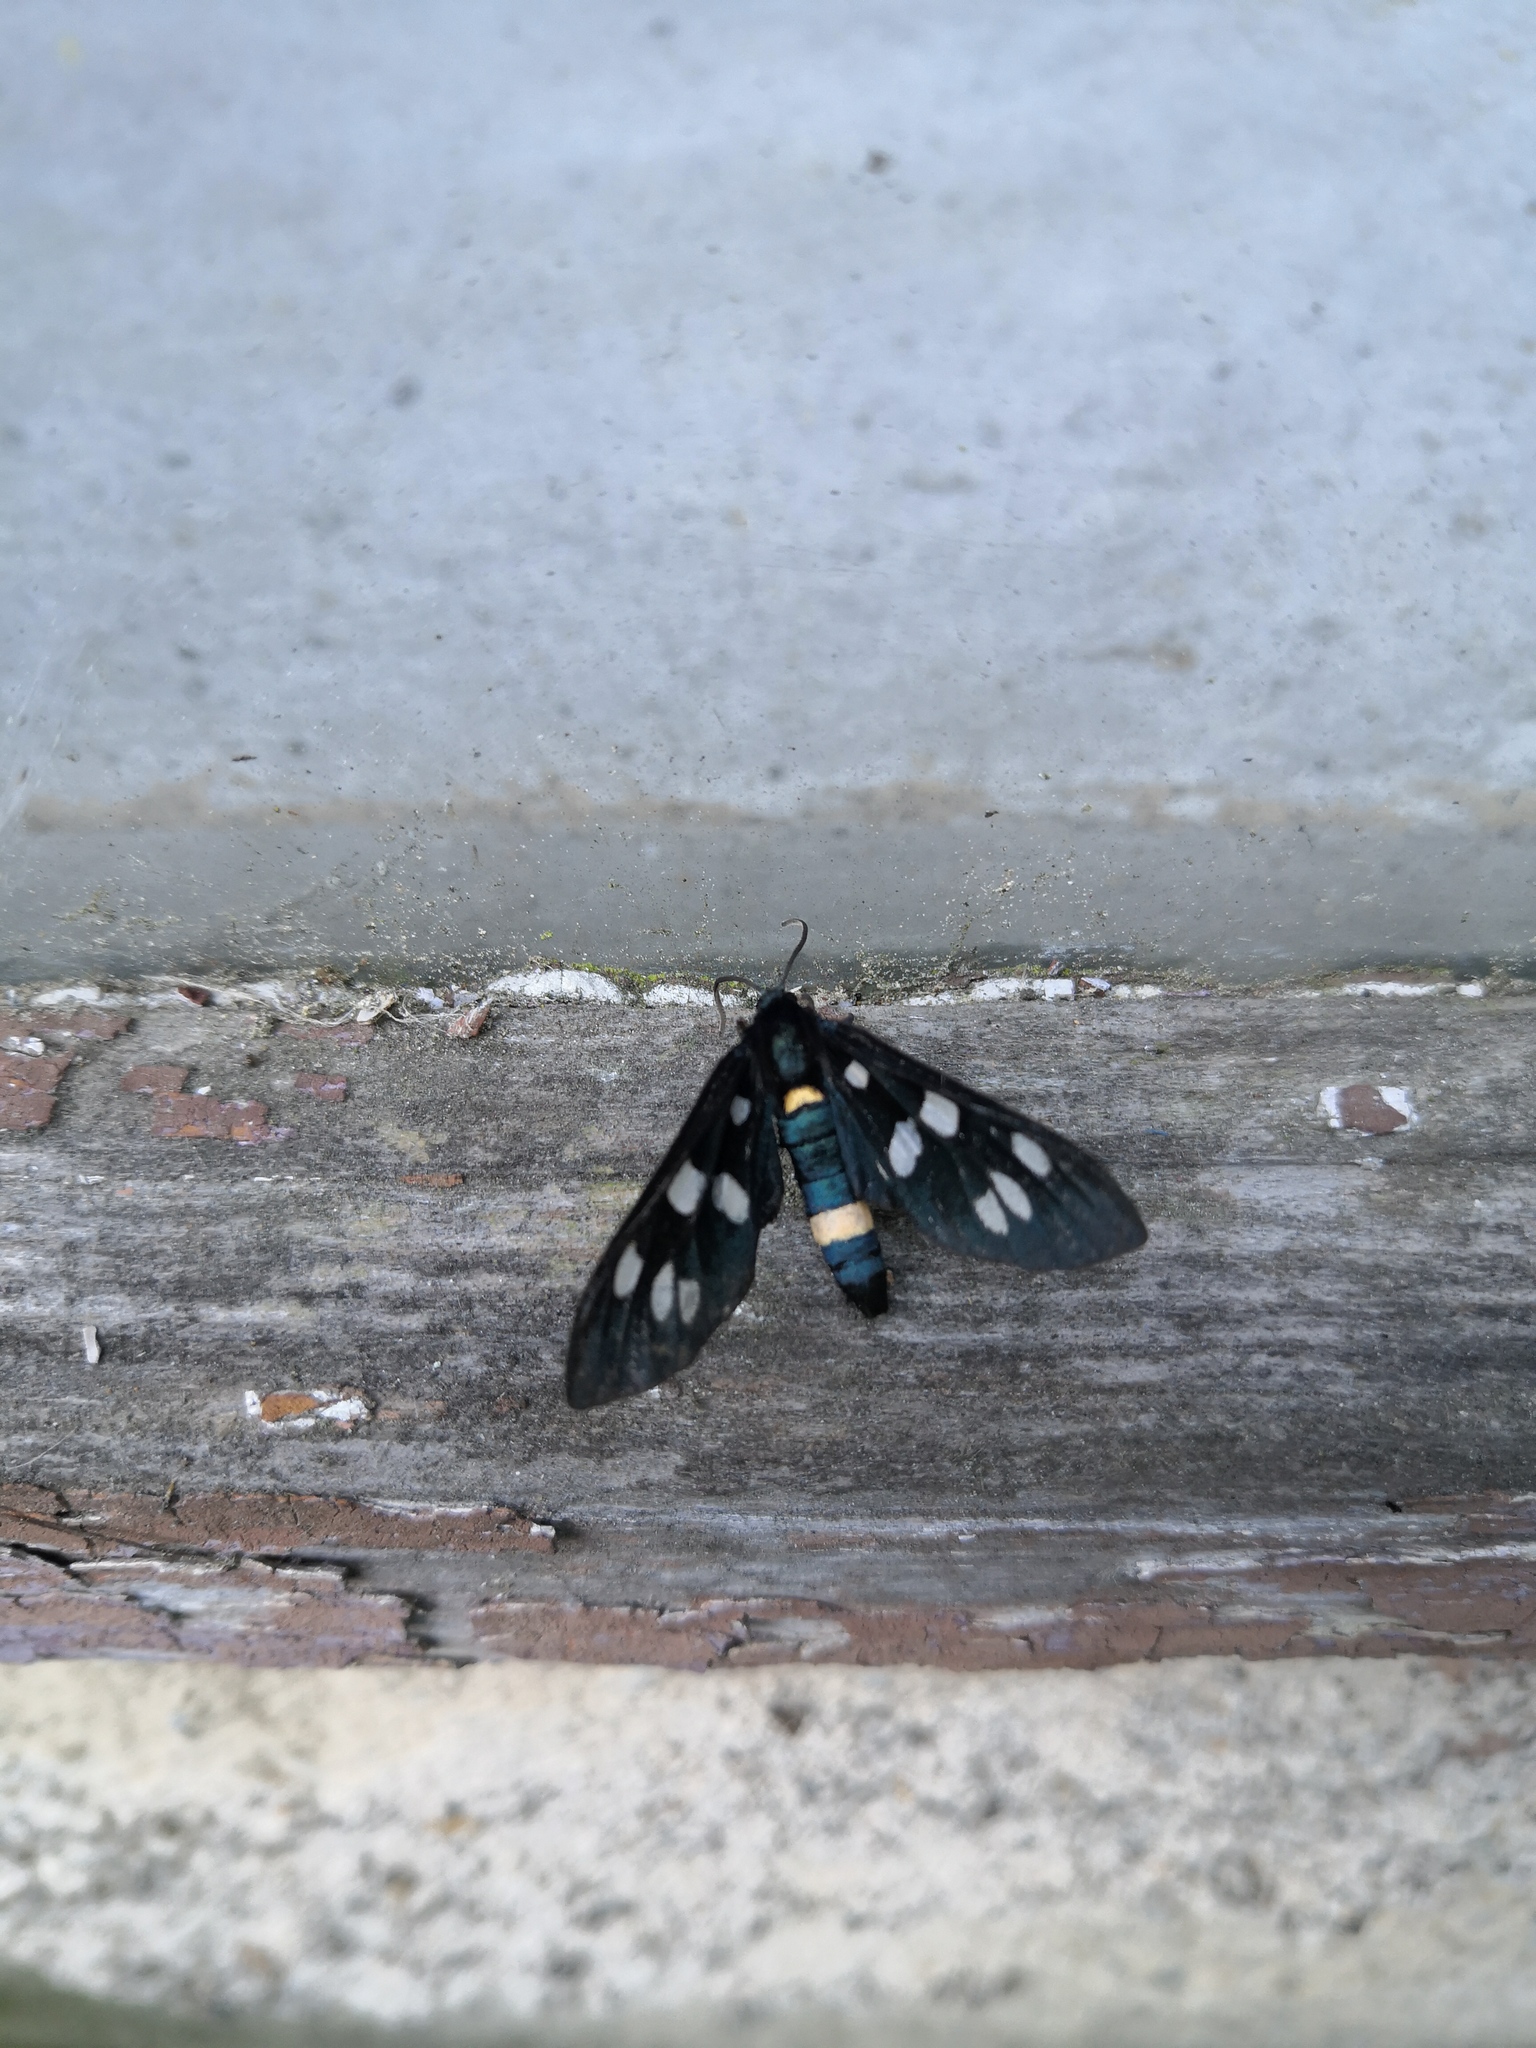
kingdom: Animalia
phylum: Arthropoda
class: Insecta
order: Lepidoptera
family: Erebidae
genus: Amata
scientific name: Amata phegea
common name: Nine-spotted
